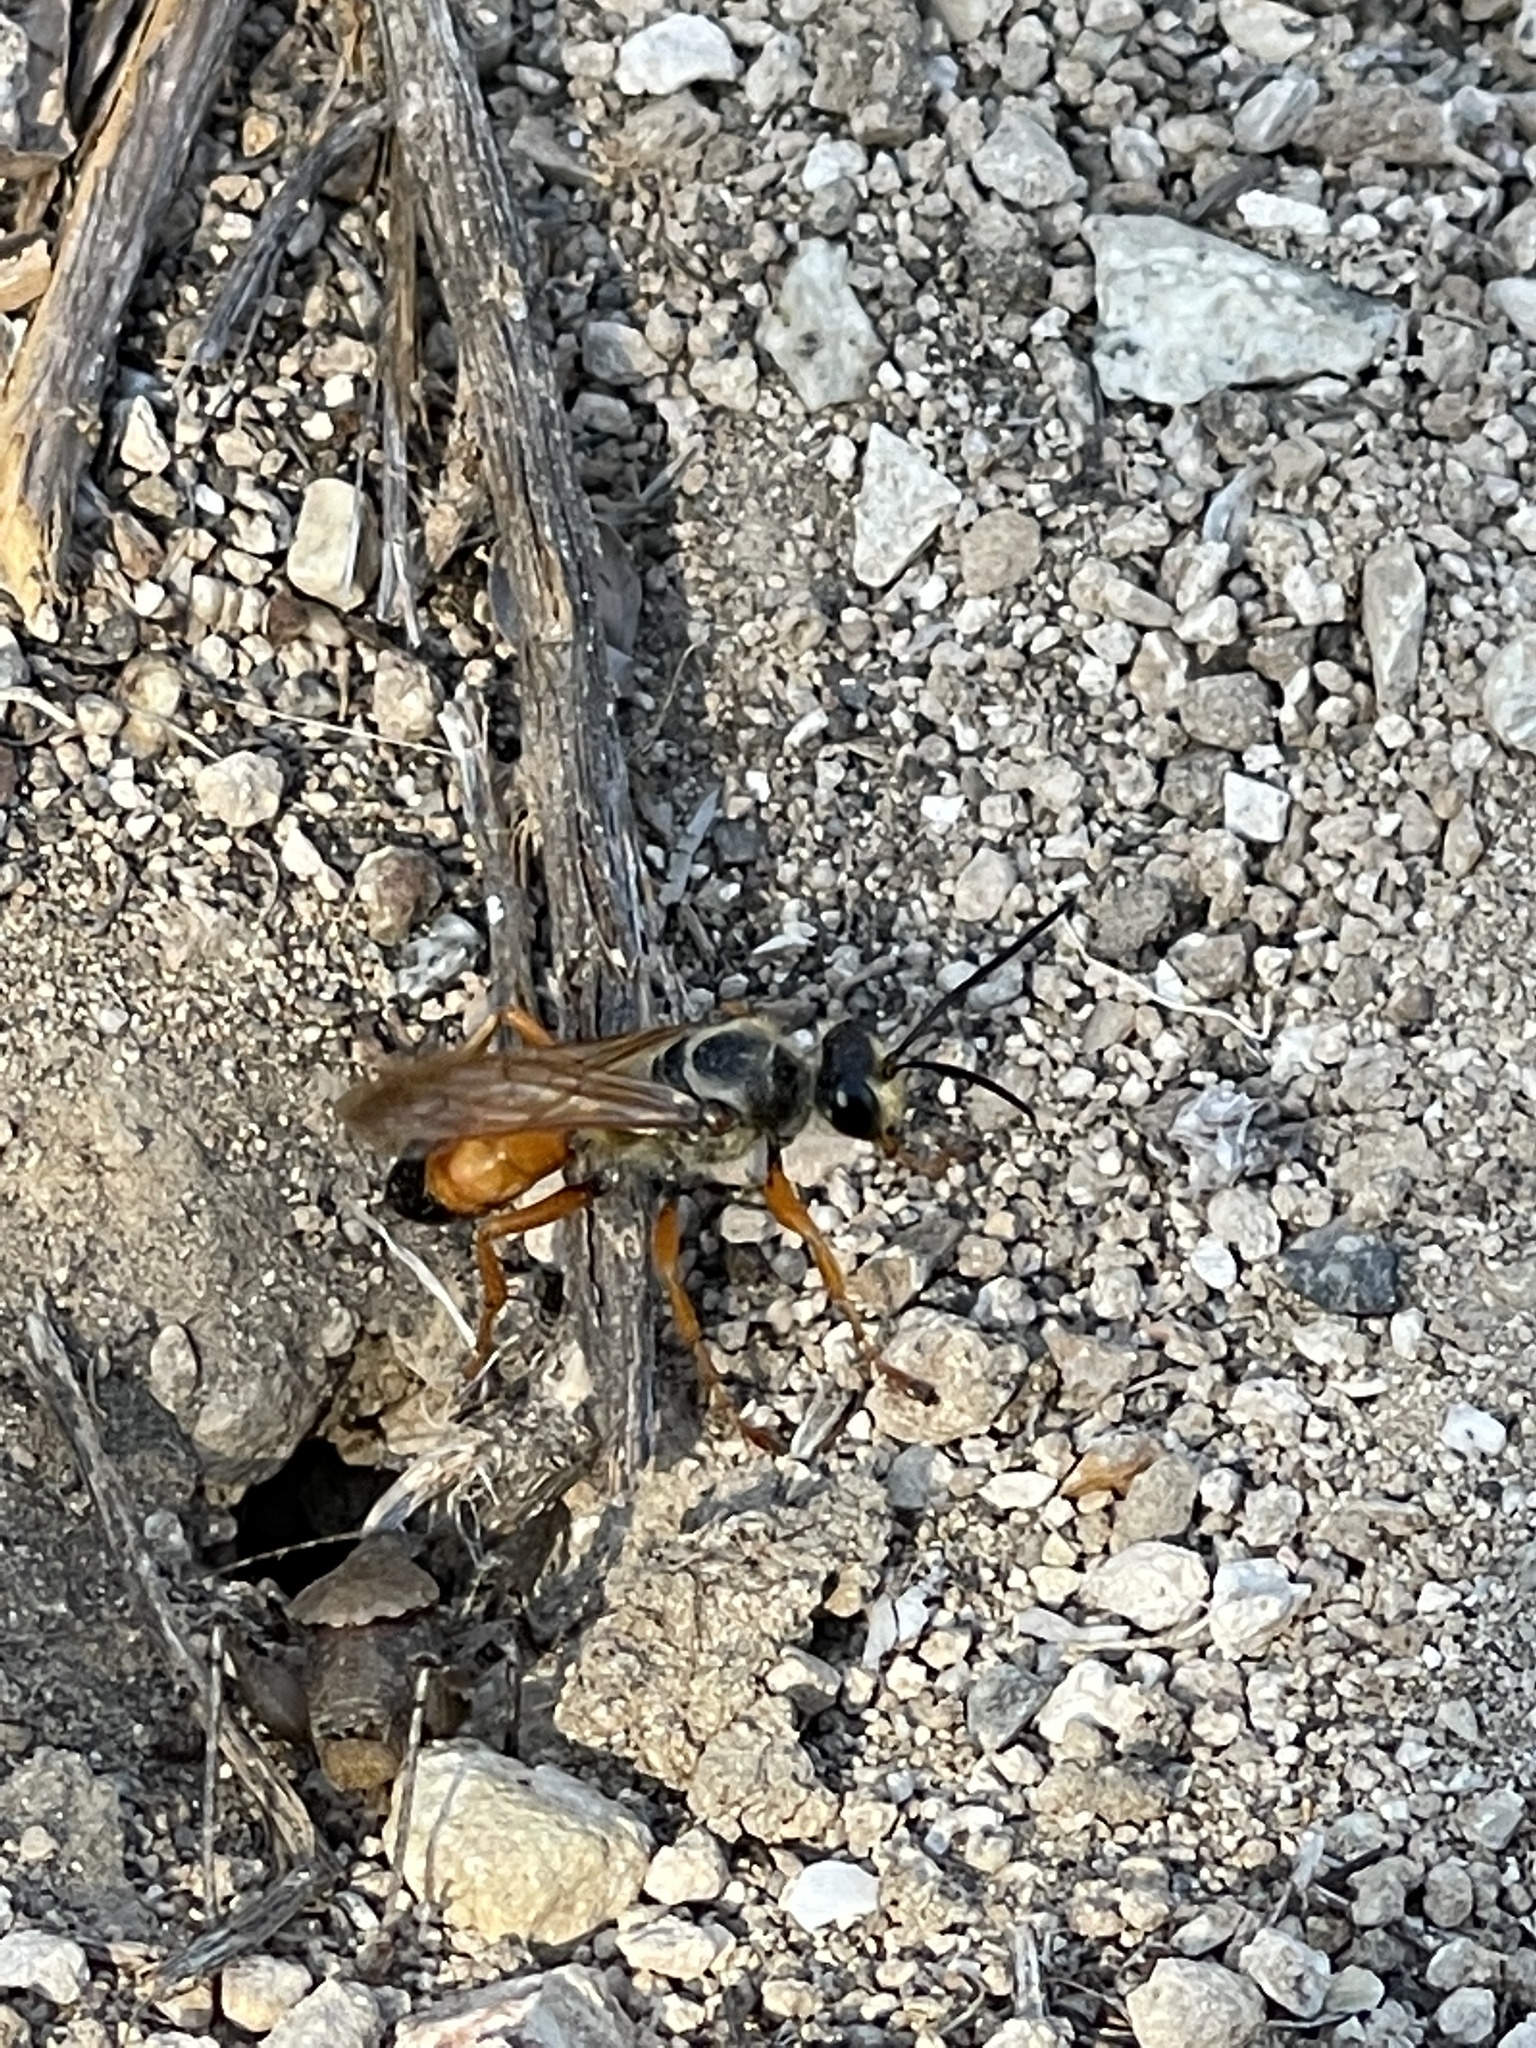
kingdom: Animalia
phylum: Arthropoda
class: Insecta
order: Hymenoptera
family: Sphecidae
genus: Sphex
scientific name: Sphex ichneumoneus
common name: Great golden digger wasp
